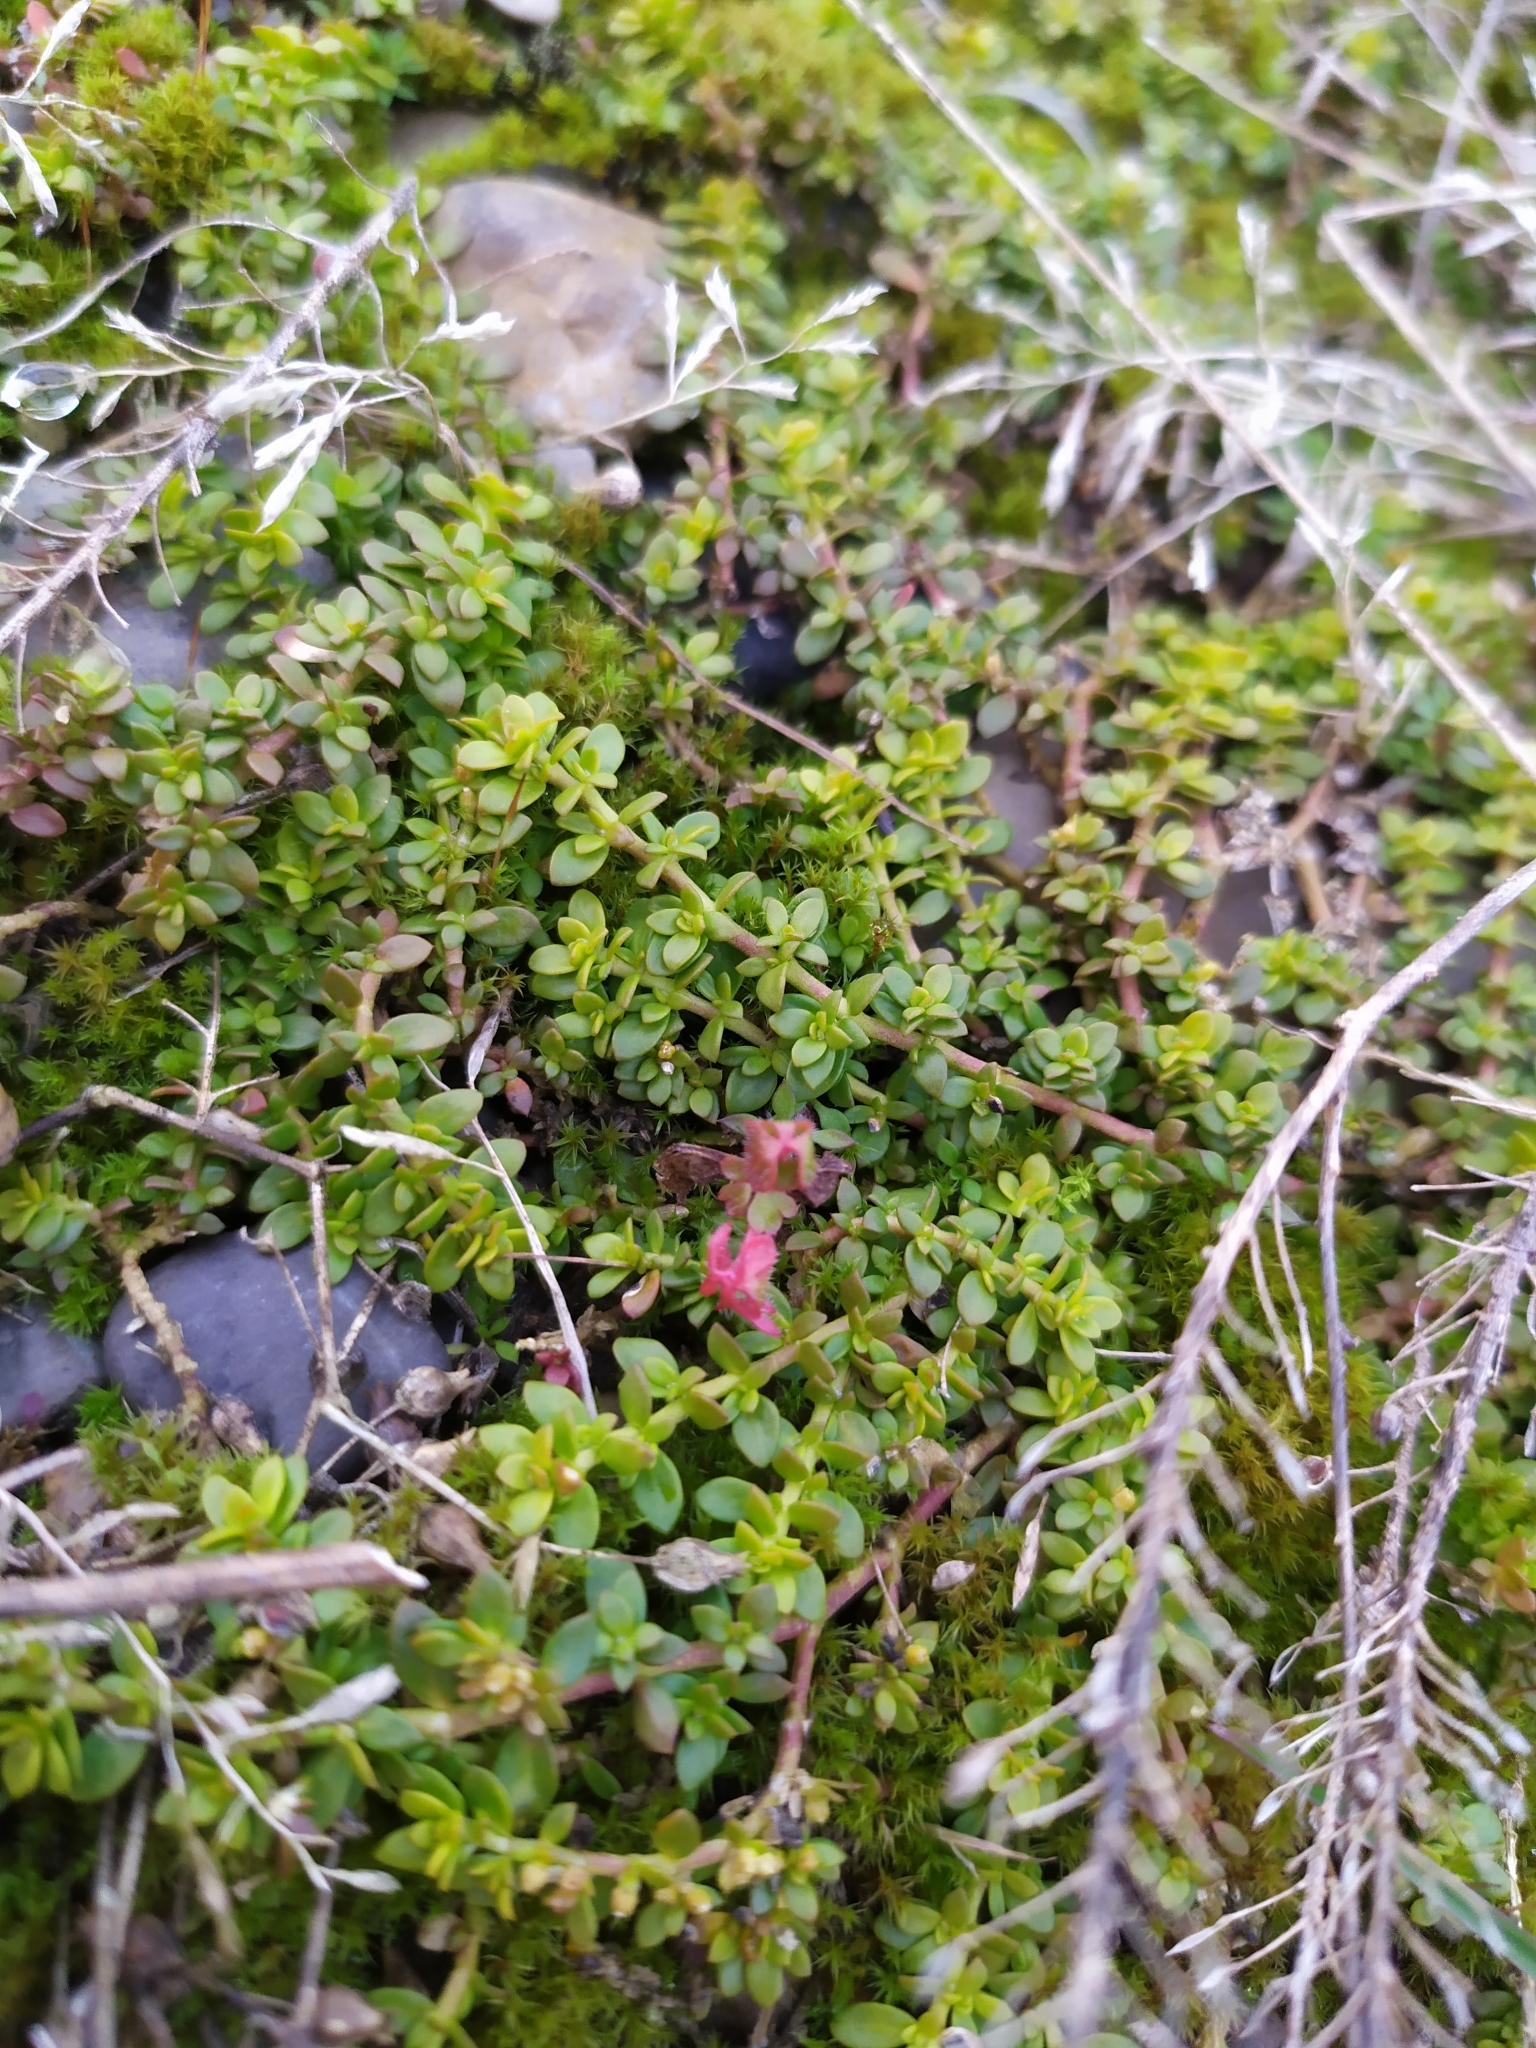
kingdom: Plantae
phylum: Tracheophyta
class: Magnoliopsida
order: Caryophyllales
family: Caryophyllaceae
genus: Herniaria
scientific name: Herniaria glabra
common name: Smooth rupturewort
